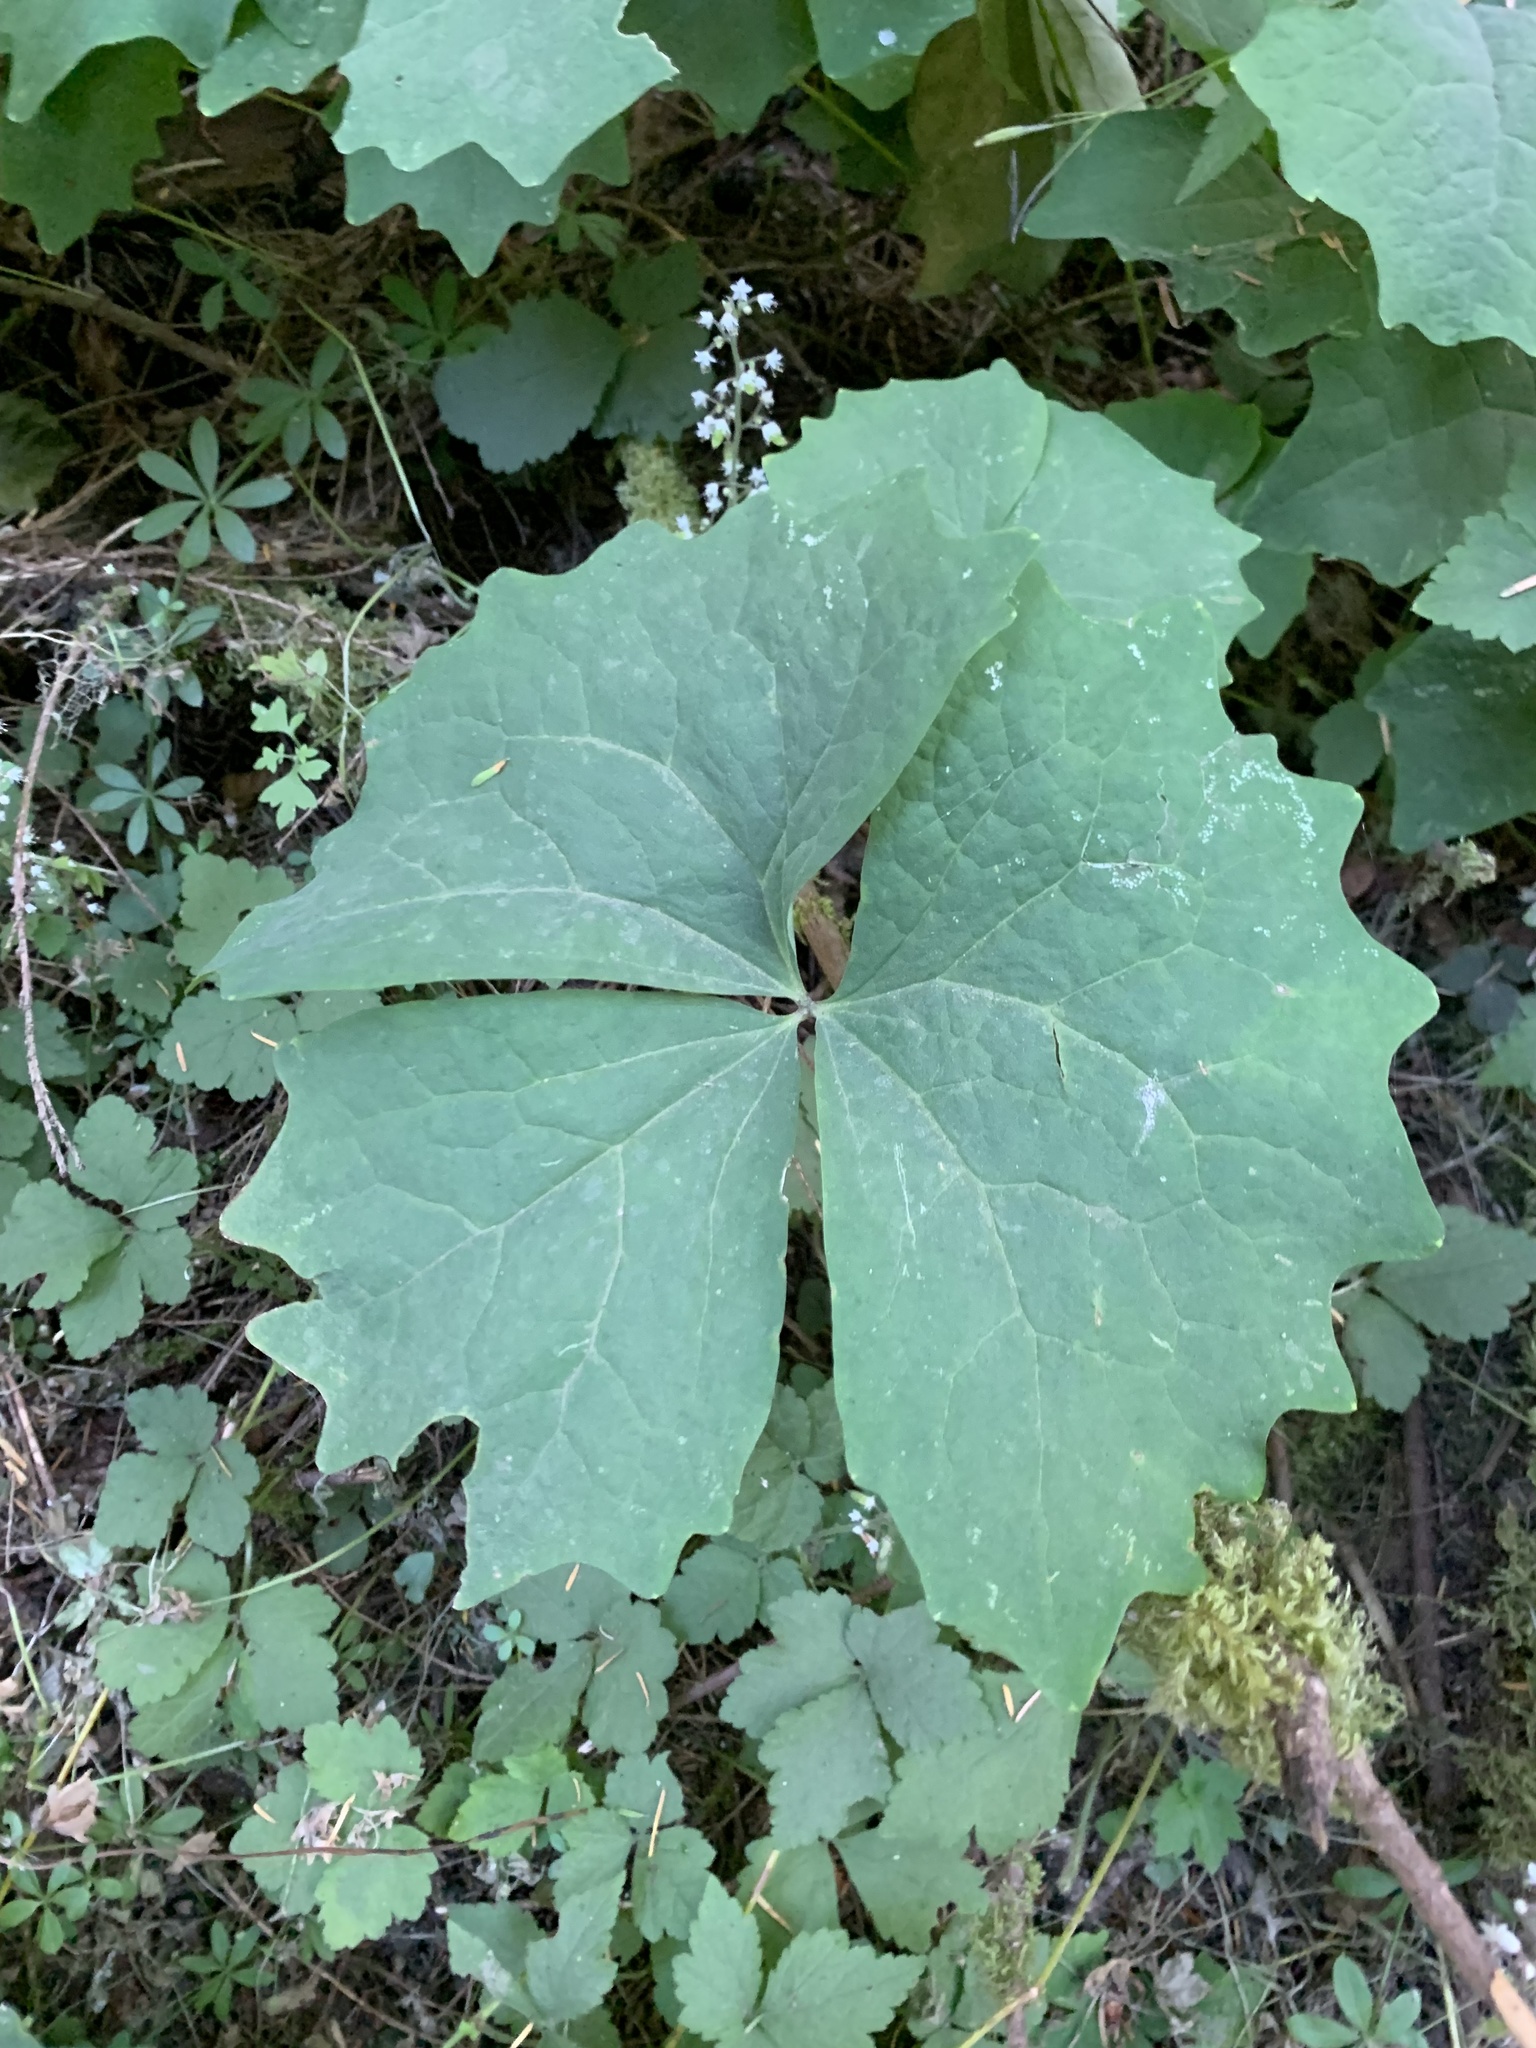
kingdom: Plantae
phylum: Tracheophyta
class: Magnoliopsida
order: Ranunculales
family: Berberidaceae
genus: Achlys
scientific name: Achlys californica
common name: California deer-foot
